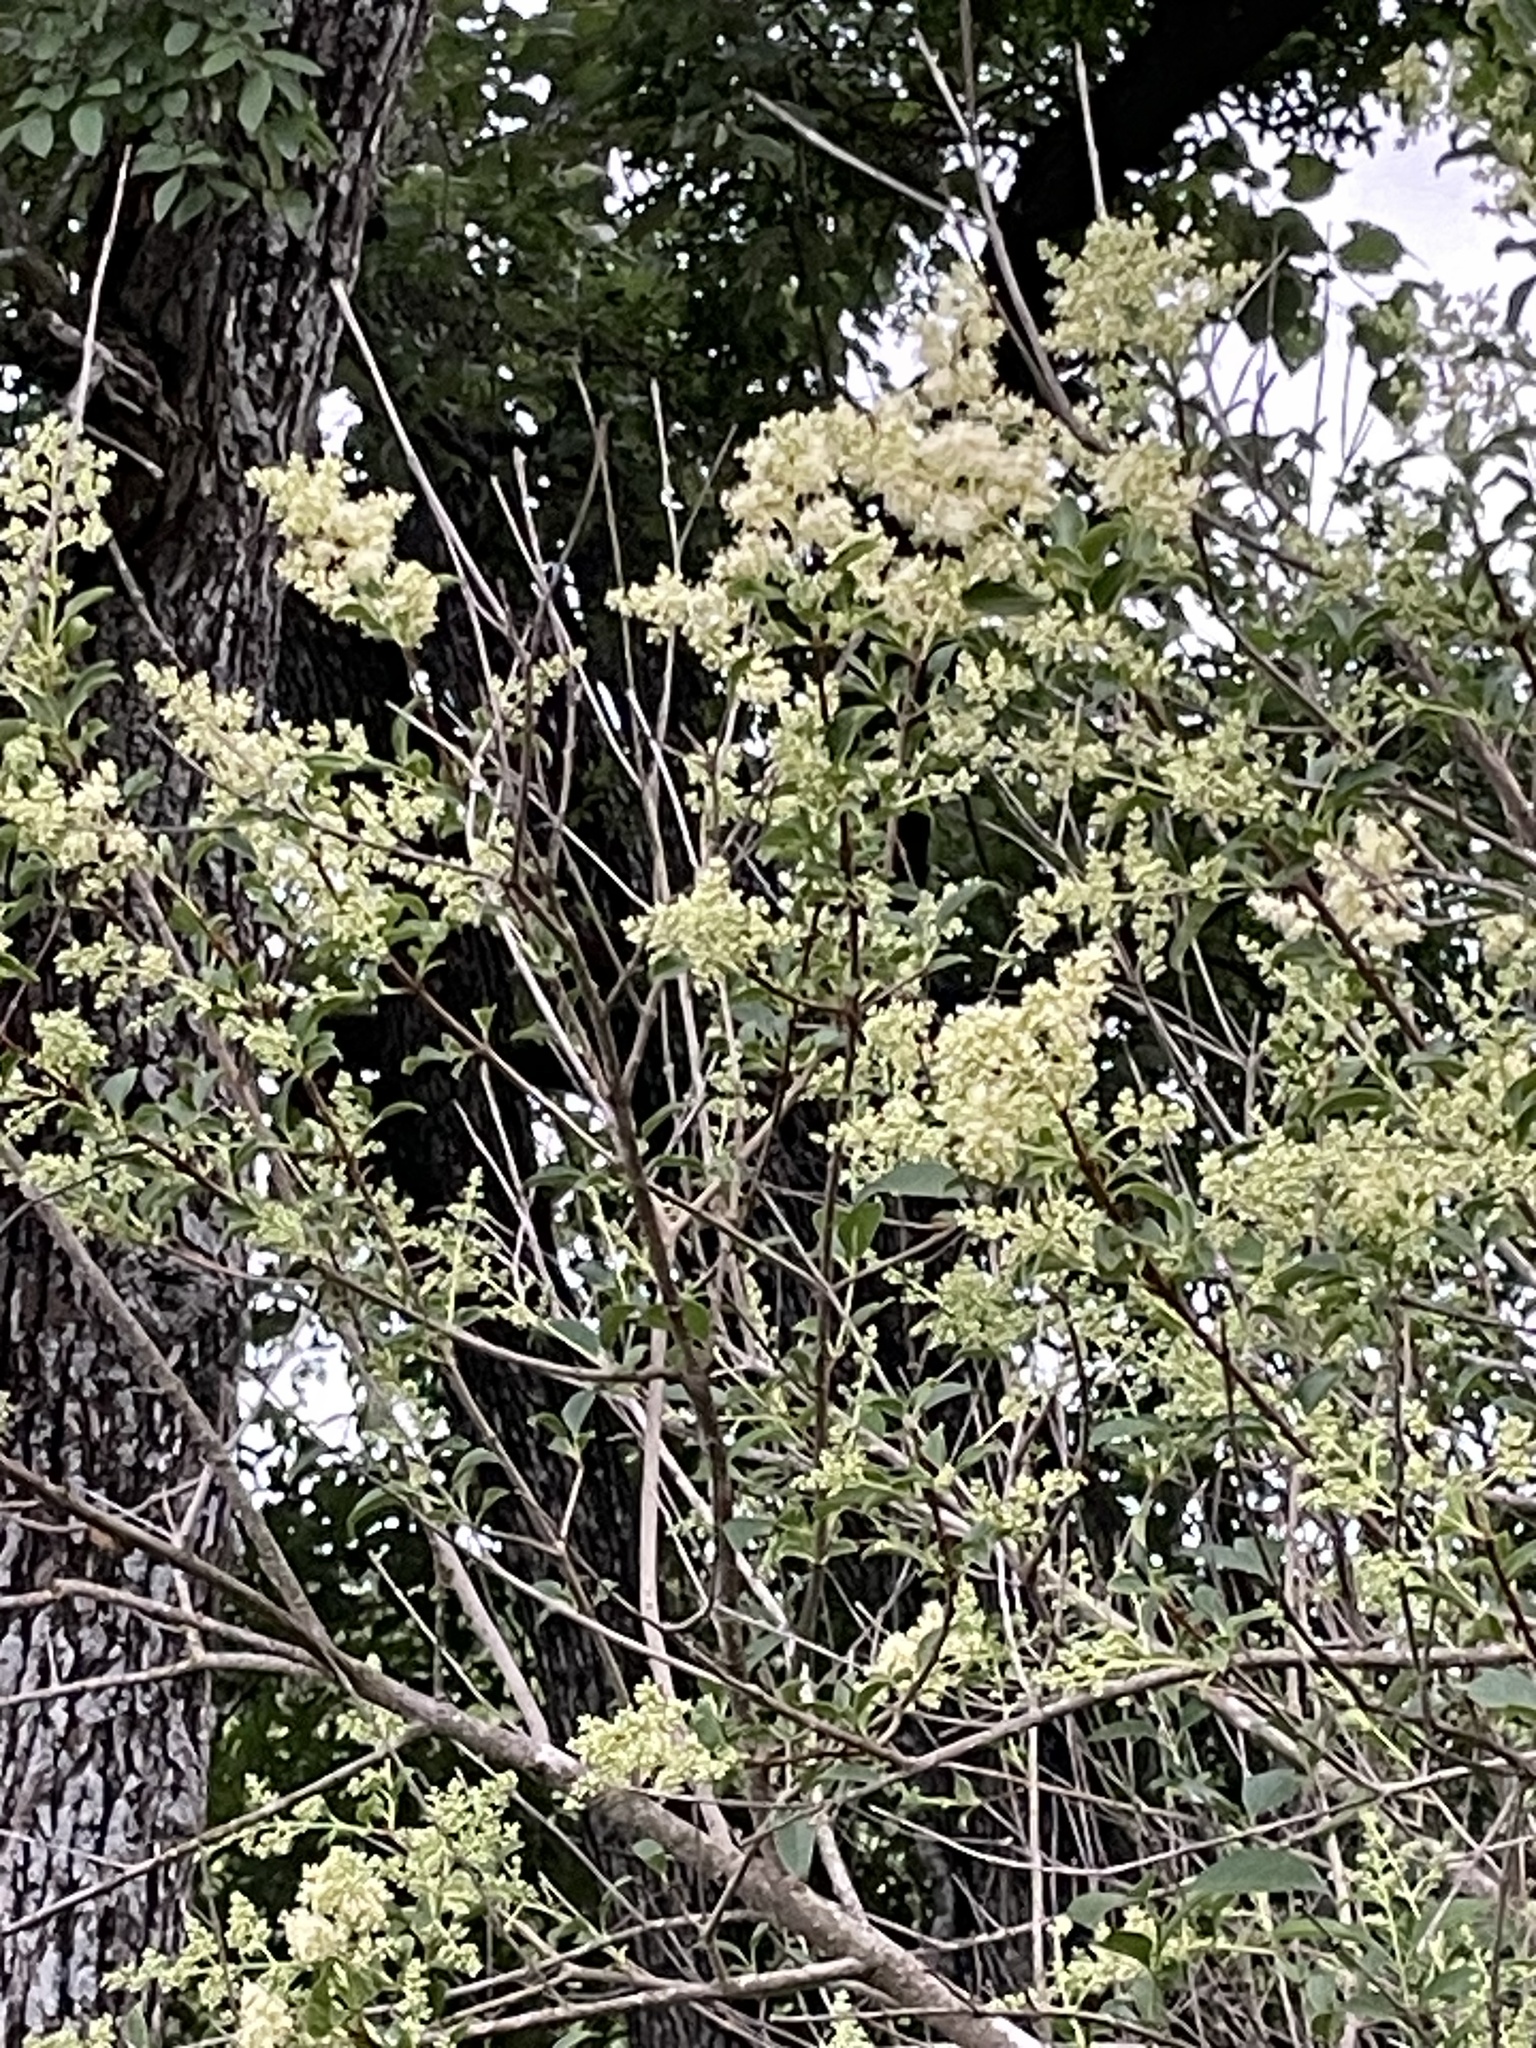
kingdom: Plantae
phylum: Tracheophyta
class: Magnoliopsida
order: Lamiales
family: Oleaceae
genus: Ligustrum
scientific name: Ligustrum lucidum
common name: Glossy privet
